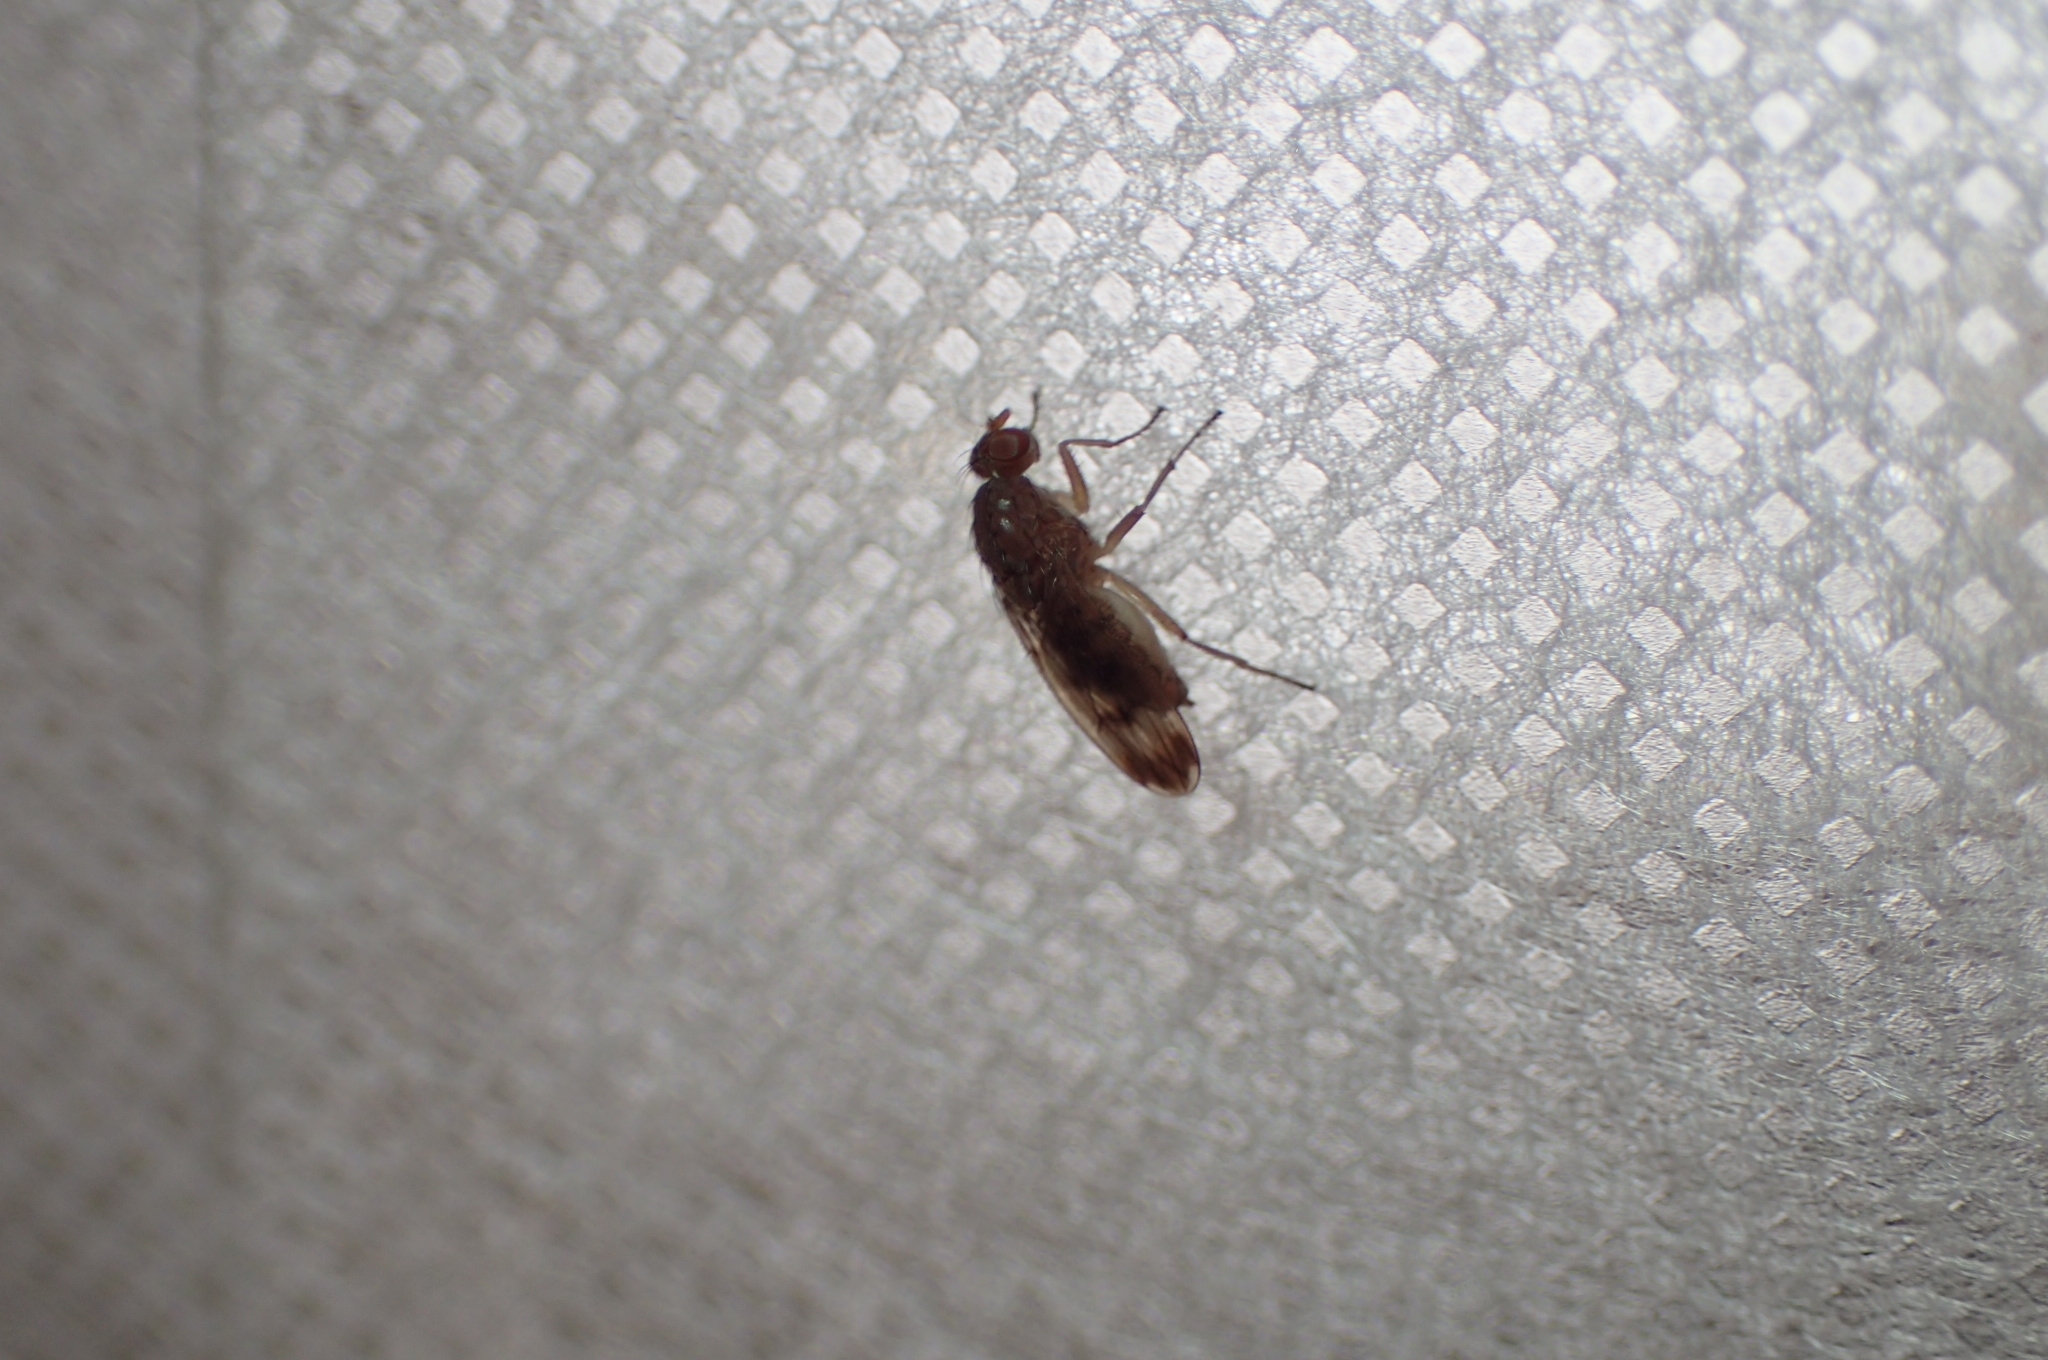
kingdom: Animalia
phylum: Arthropoda
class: Insecta
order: Diptera
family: Heleomyzidae
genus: Suillia
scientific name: Suillia variegata
